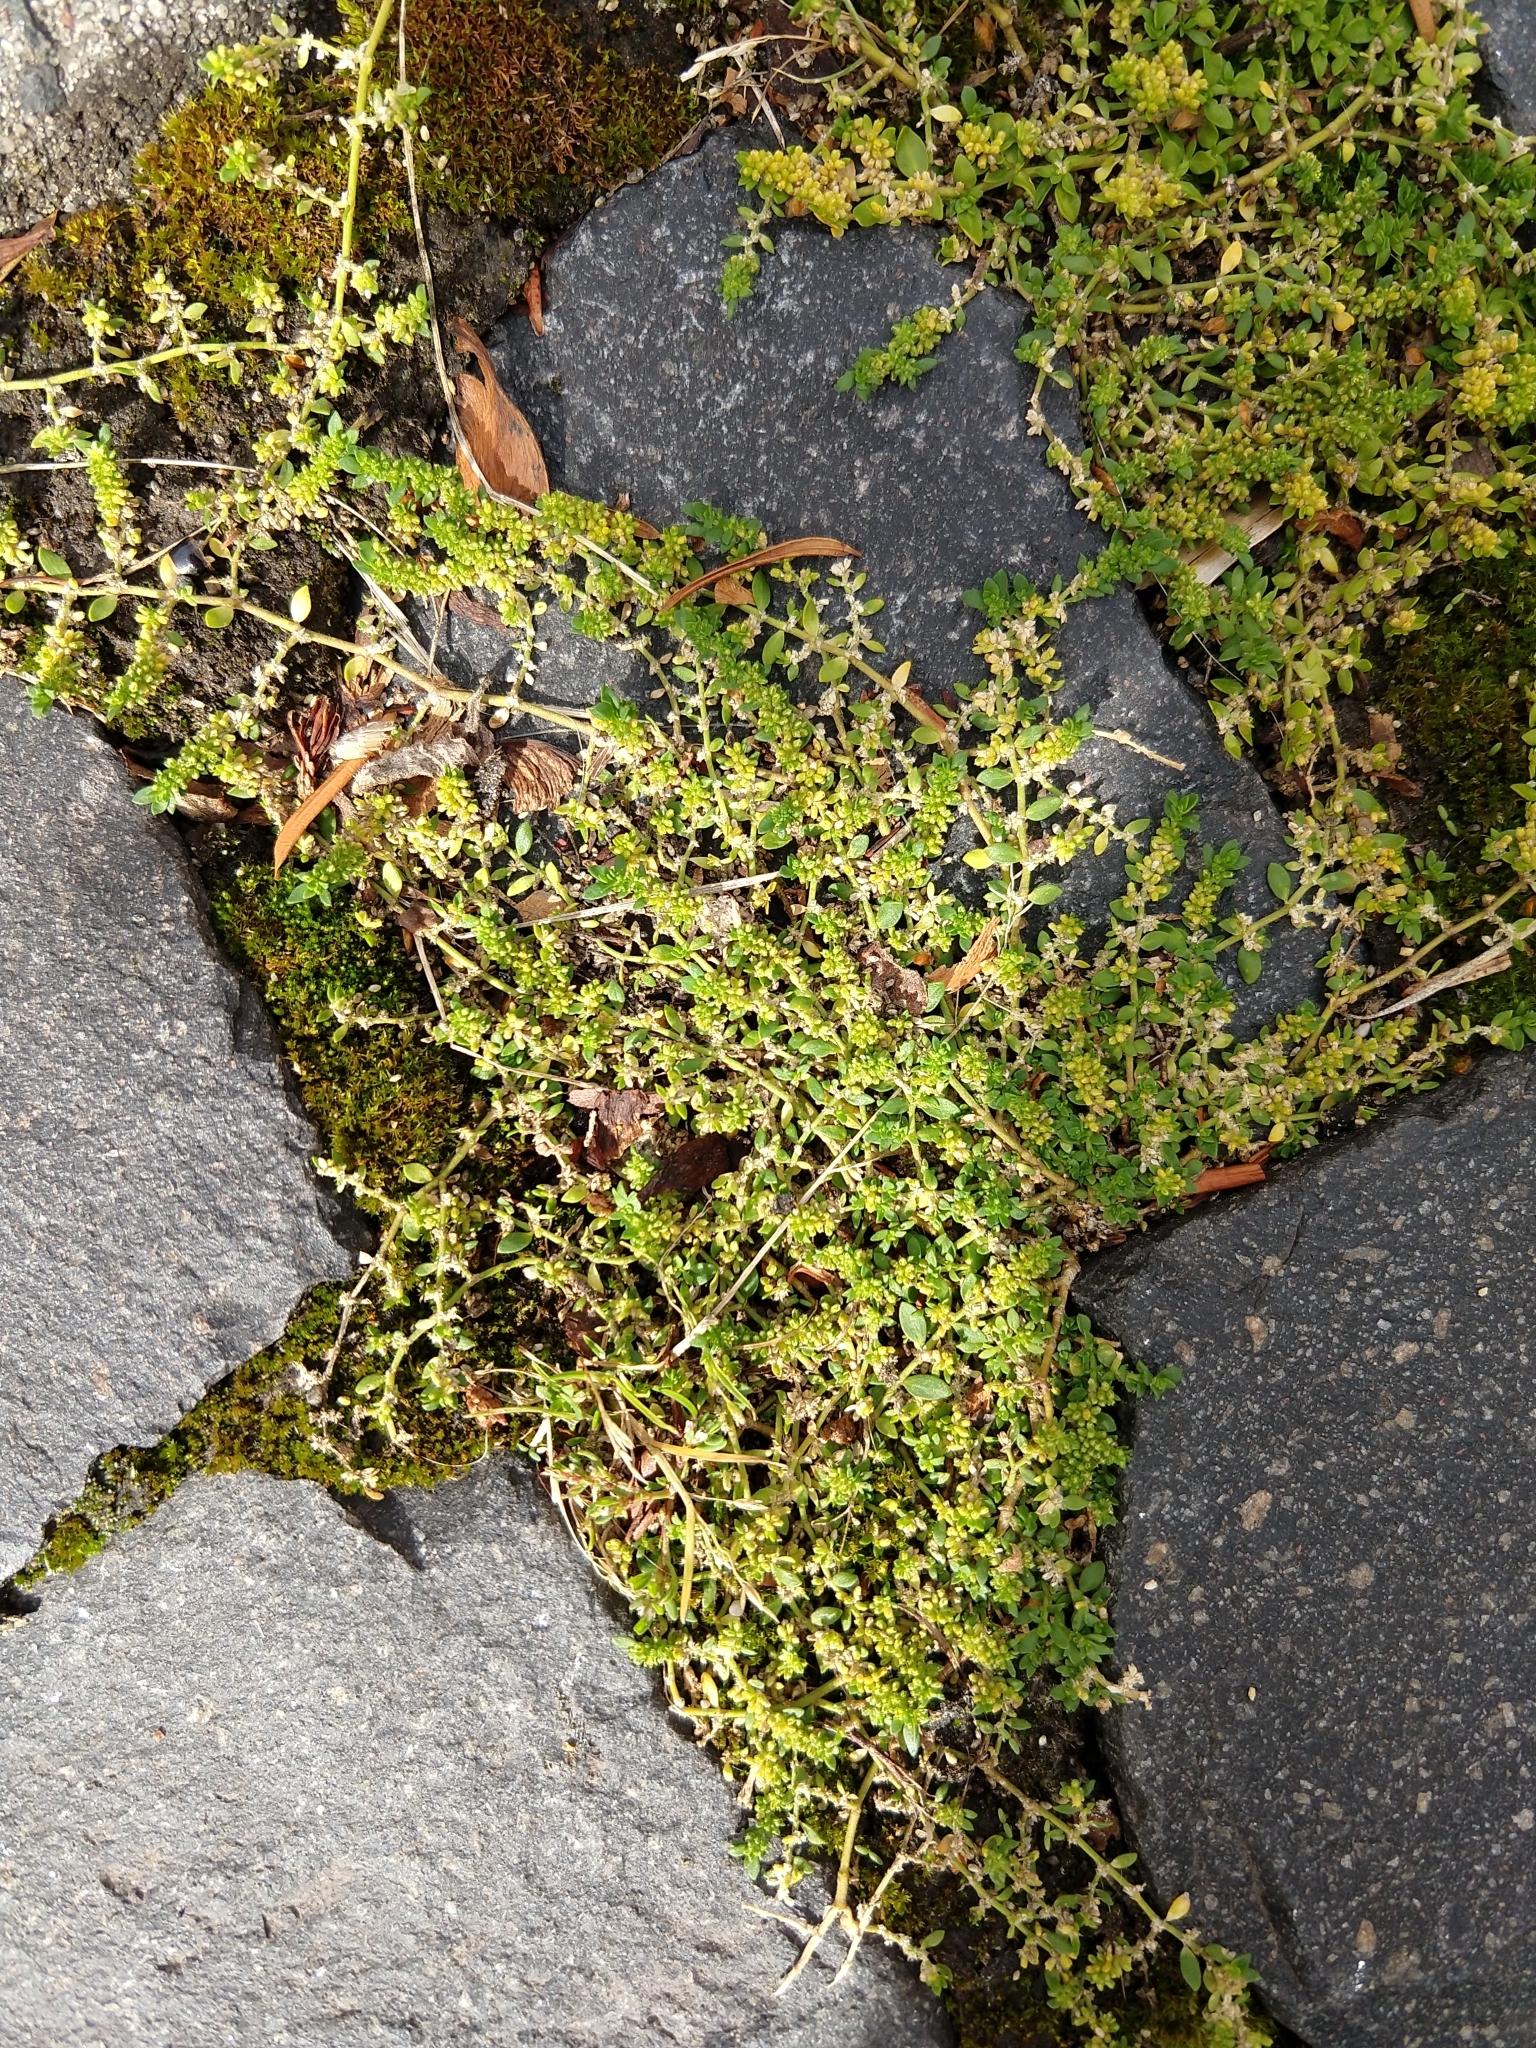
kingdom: Plantae
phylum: Tracheophyta
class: Magnoliopsida
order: Caryophyllales
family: Caryophyllaceae
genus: Herniaria
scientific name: Herniaria glabra
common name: Smooth rupturewort
